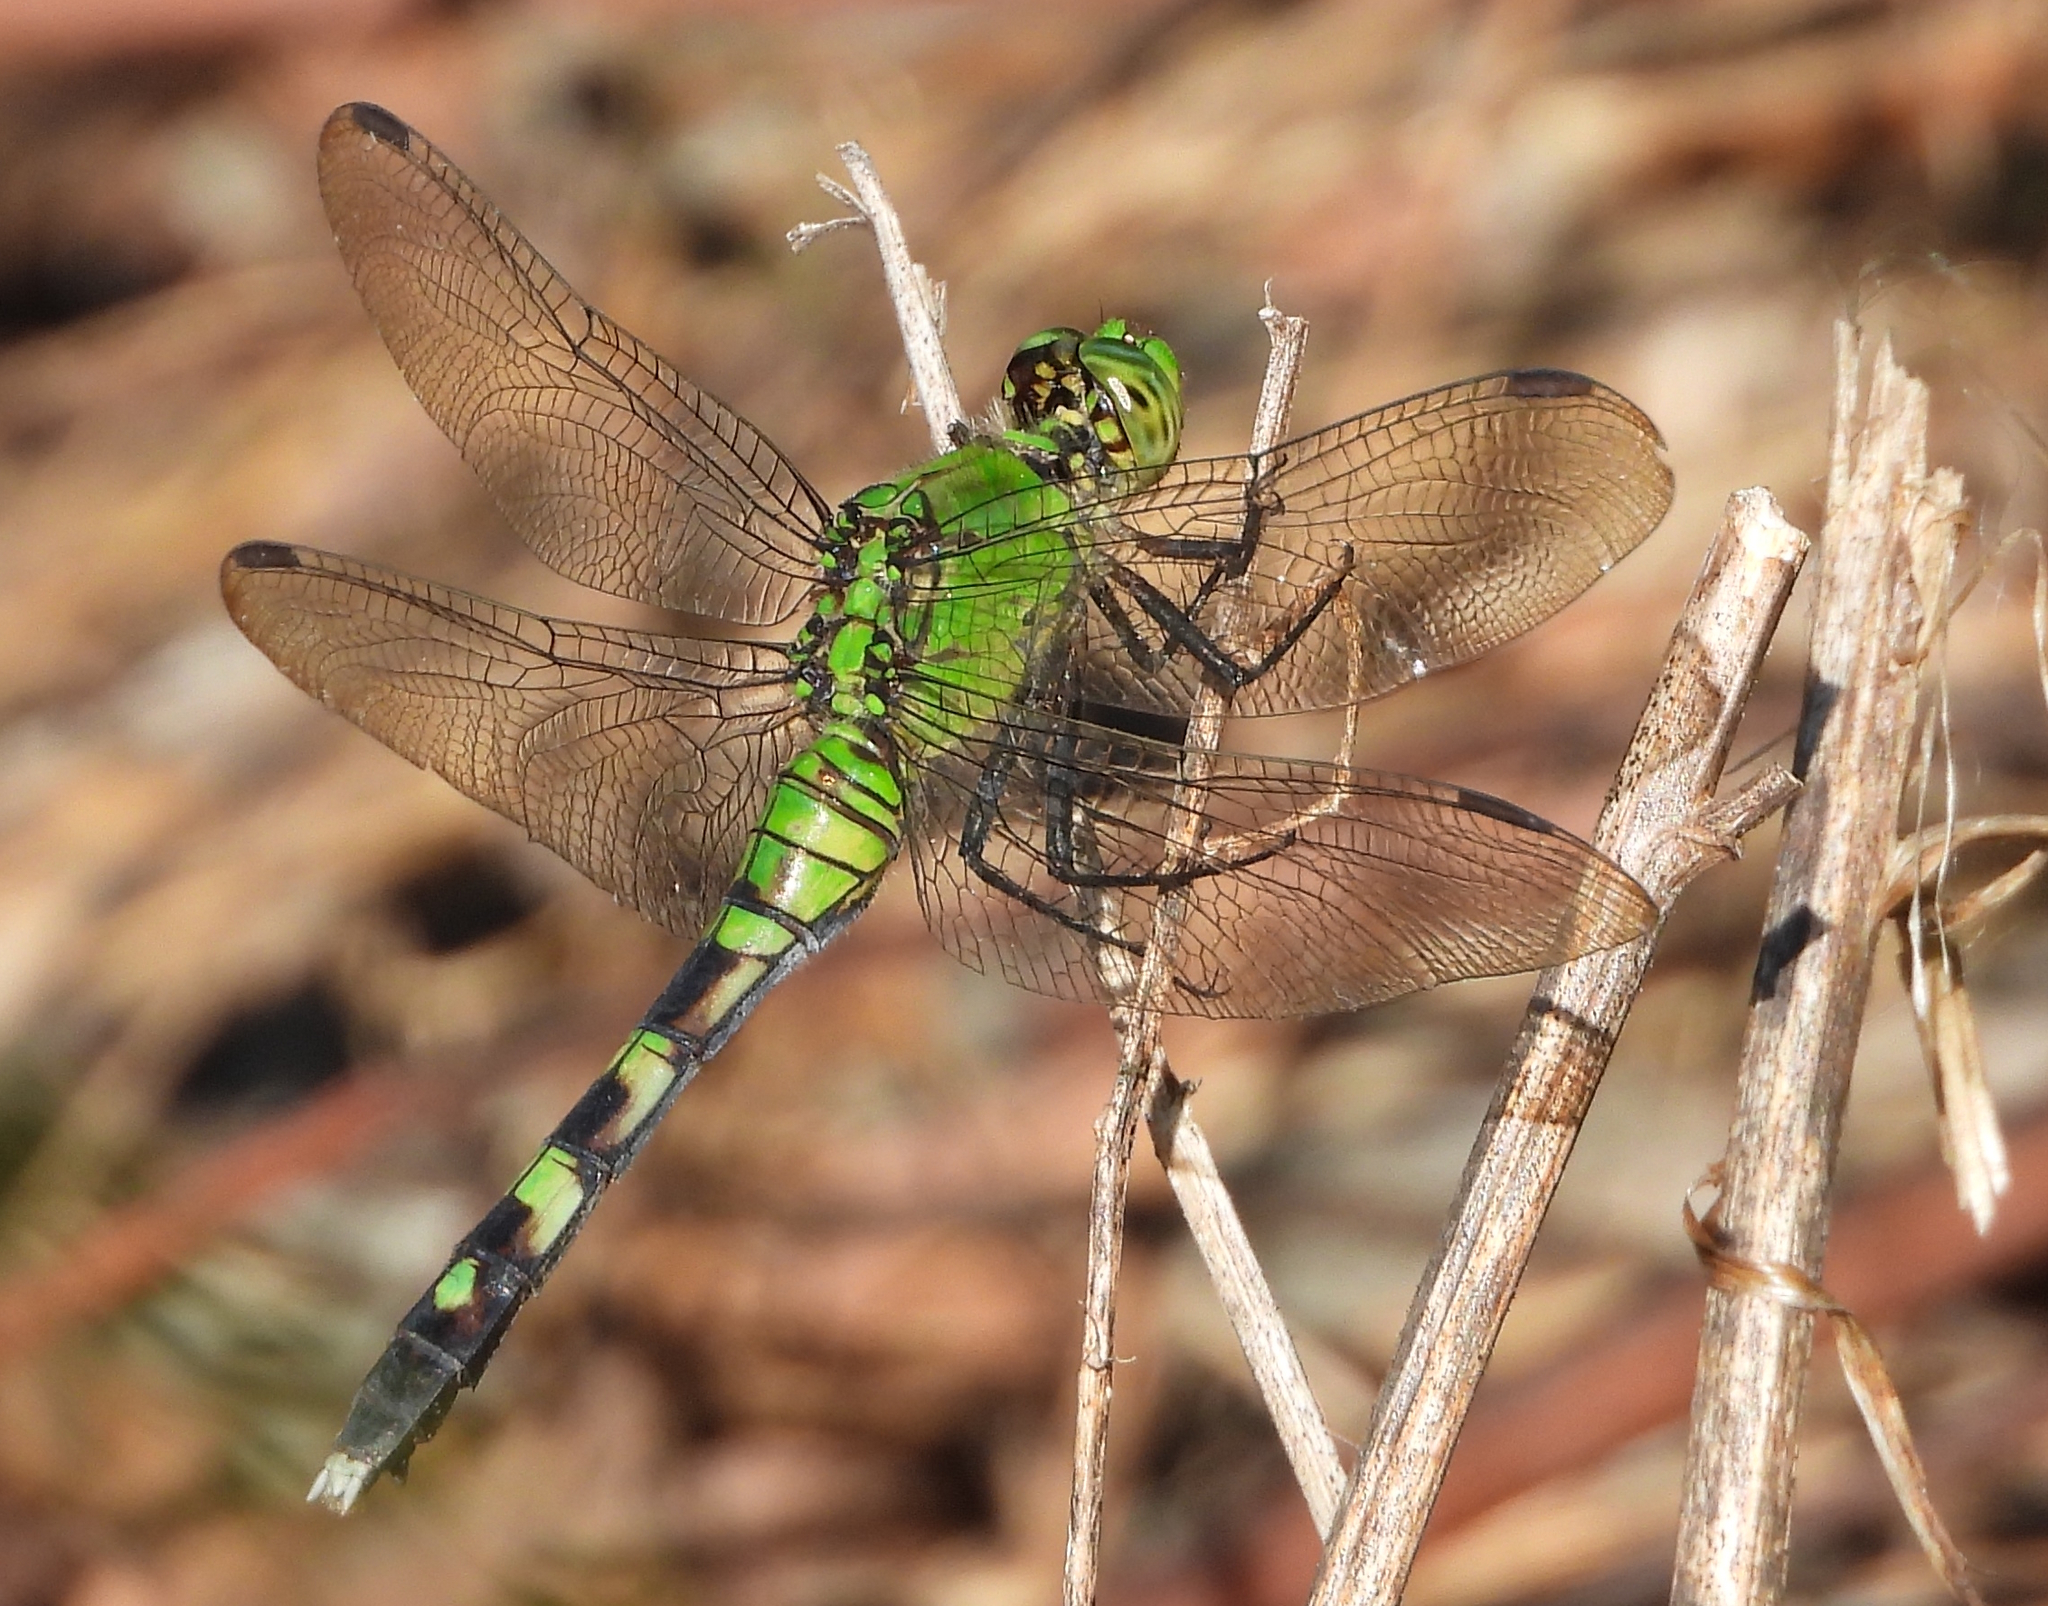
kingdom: Animalia
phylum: Arthropoda
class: Insecta
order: Odonata
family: Libellulidae
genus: Erythemis
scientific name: Erythemis simplicicollis
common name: Eastern pondhawk
